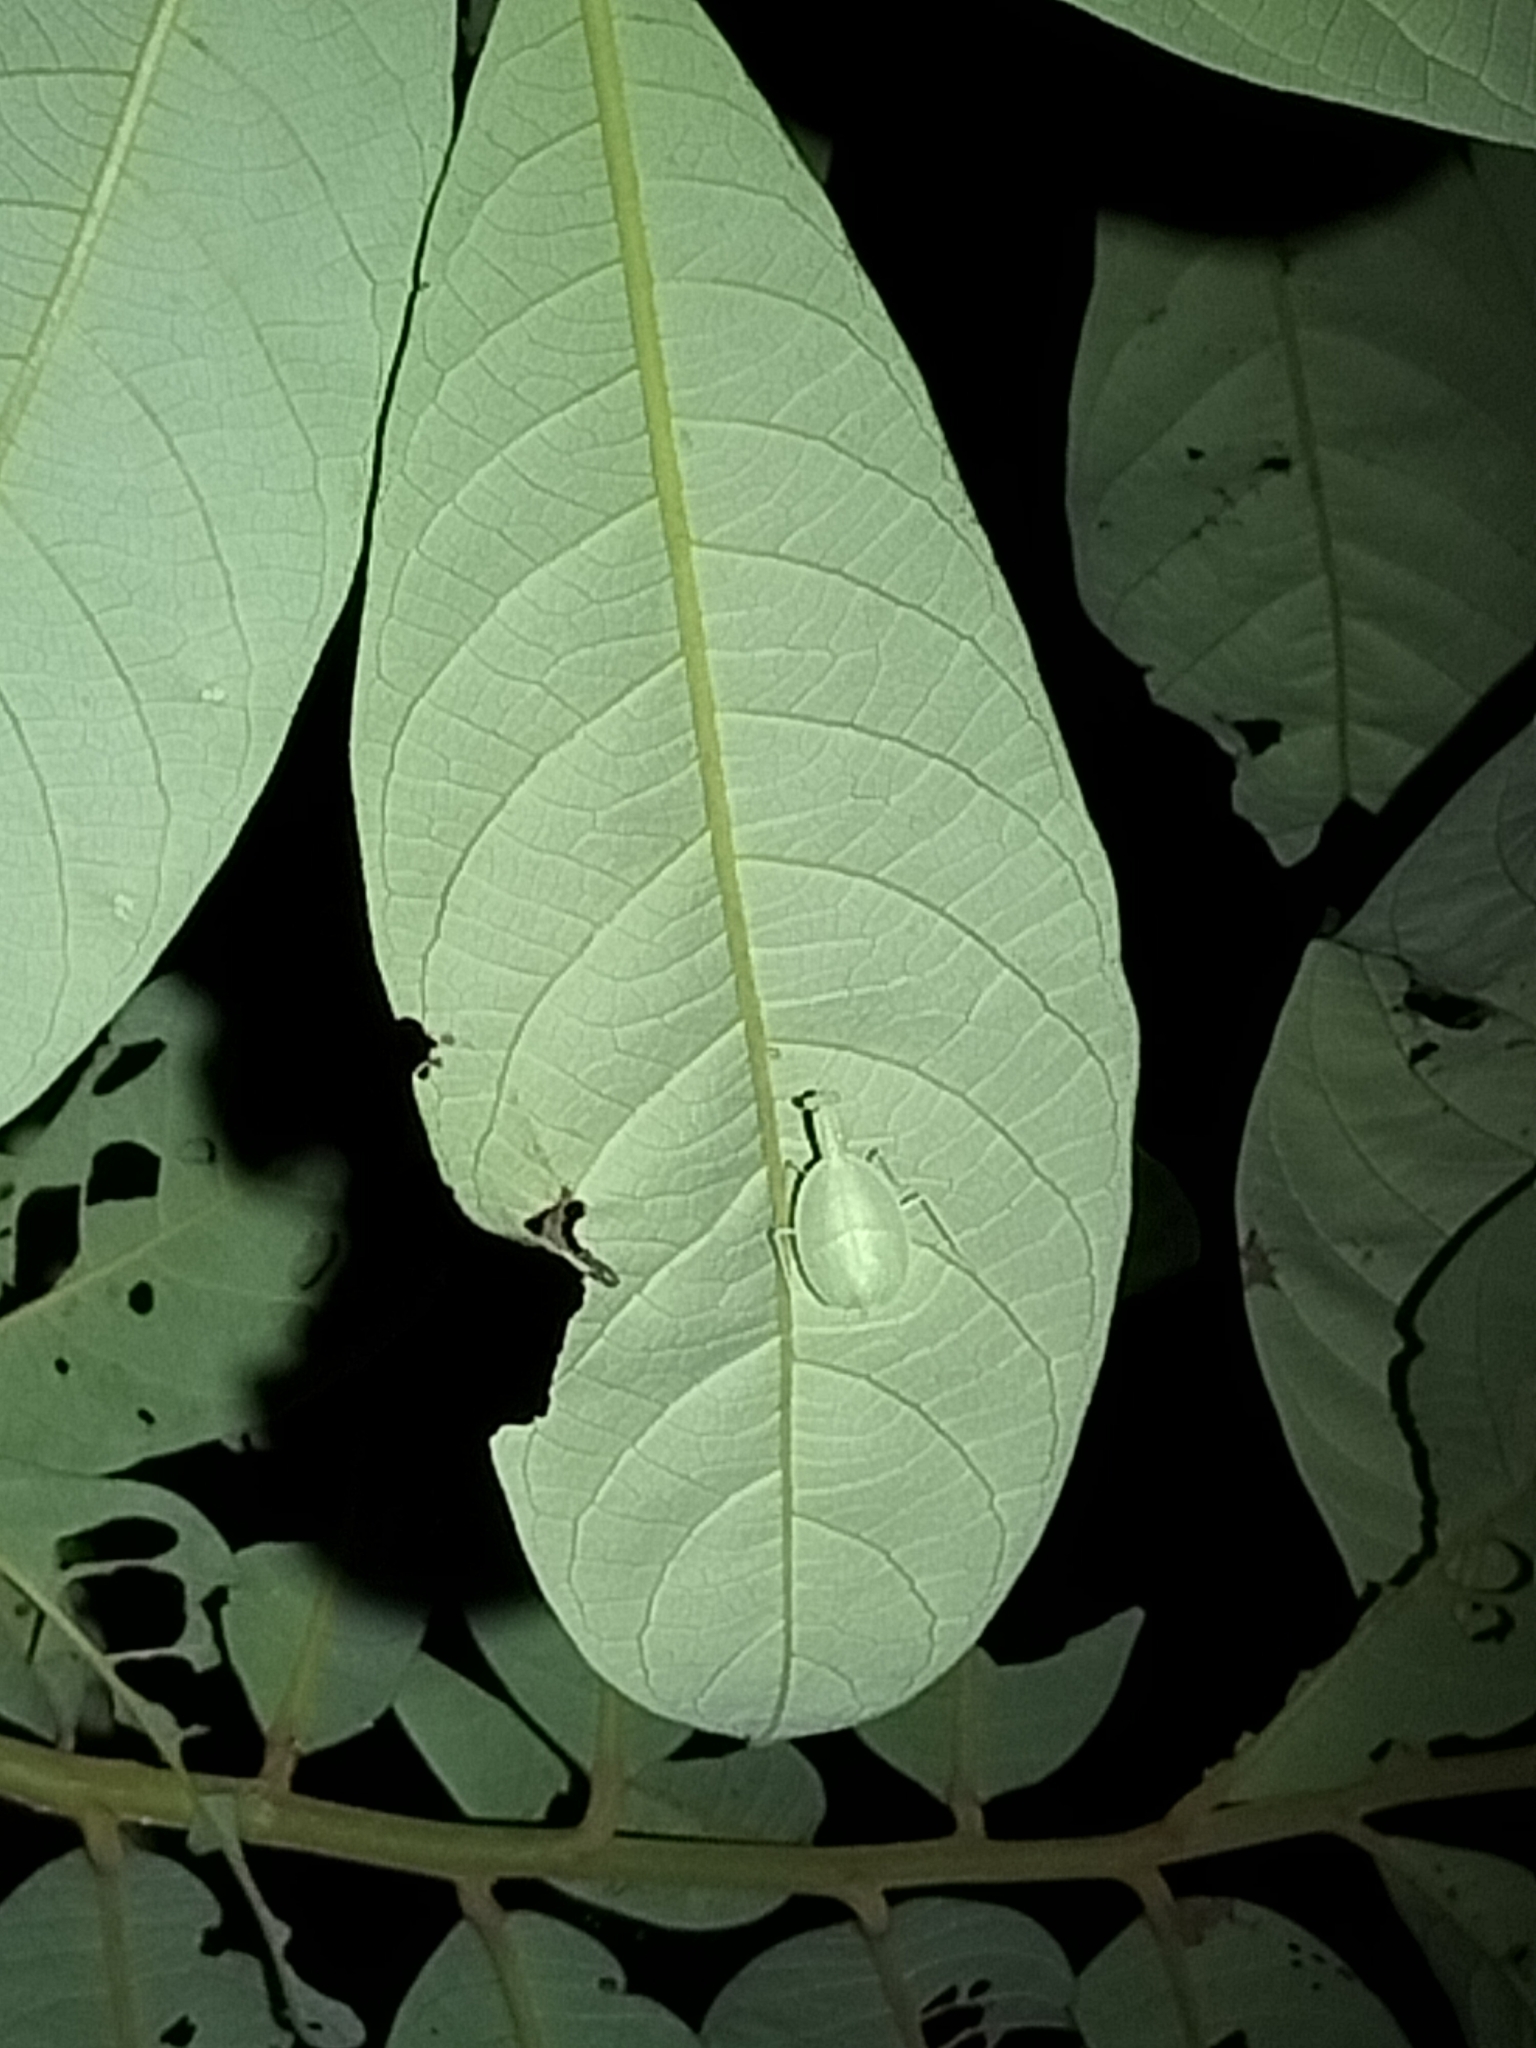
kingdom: Animalia
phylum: Arthropoda
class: Insecta
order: Mantodea
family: Nanomantidae
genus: Neomantis
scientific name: Neomantis australis
